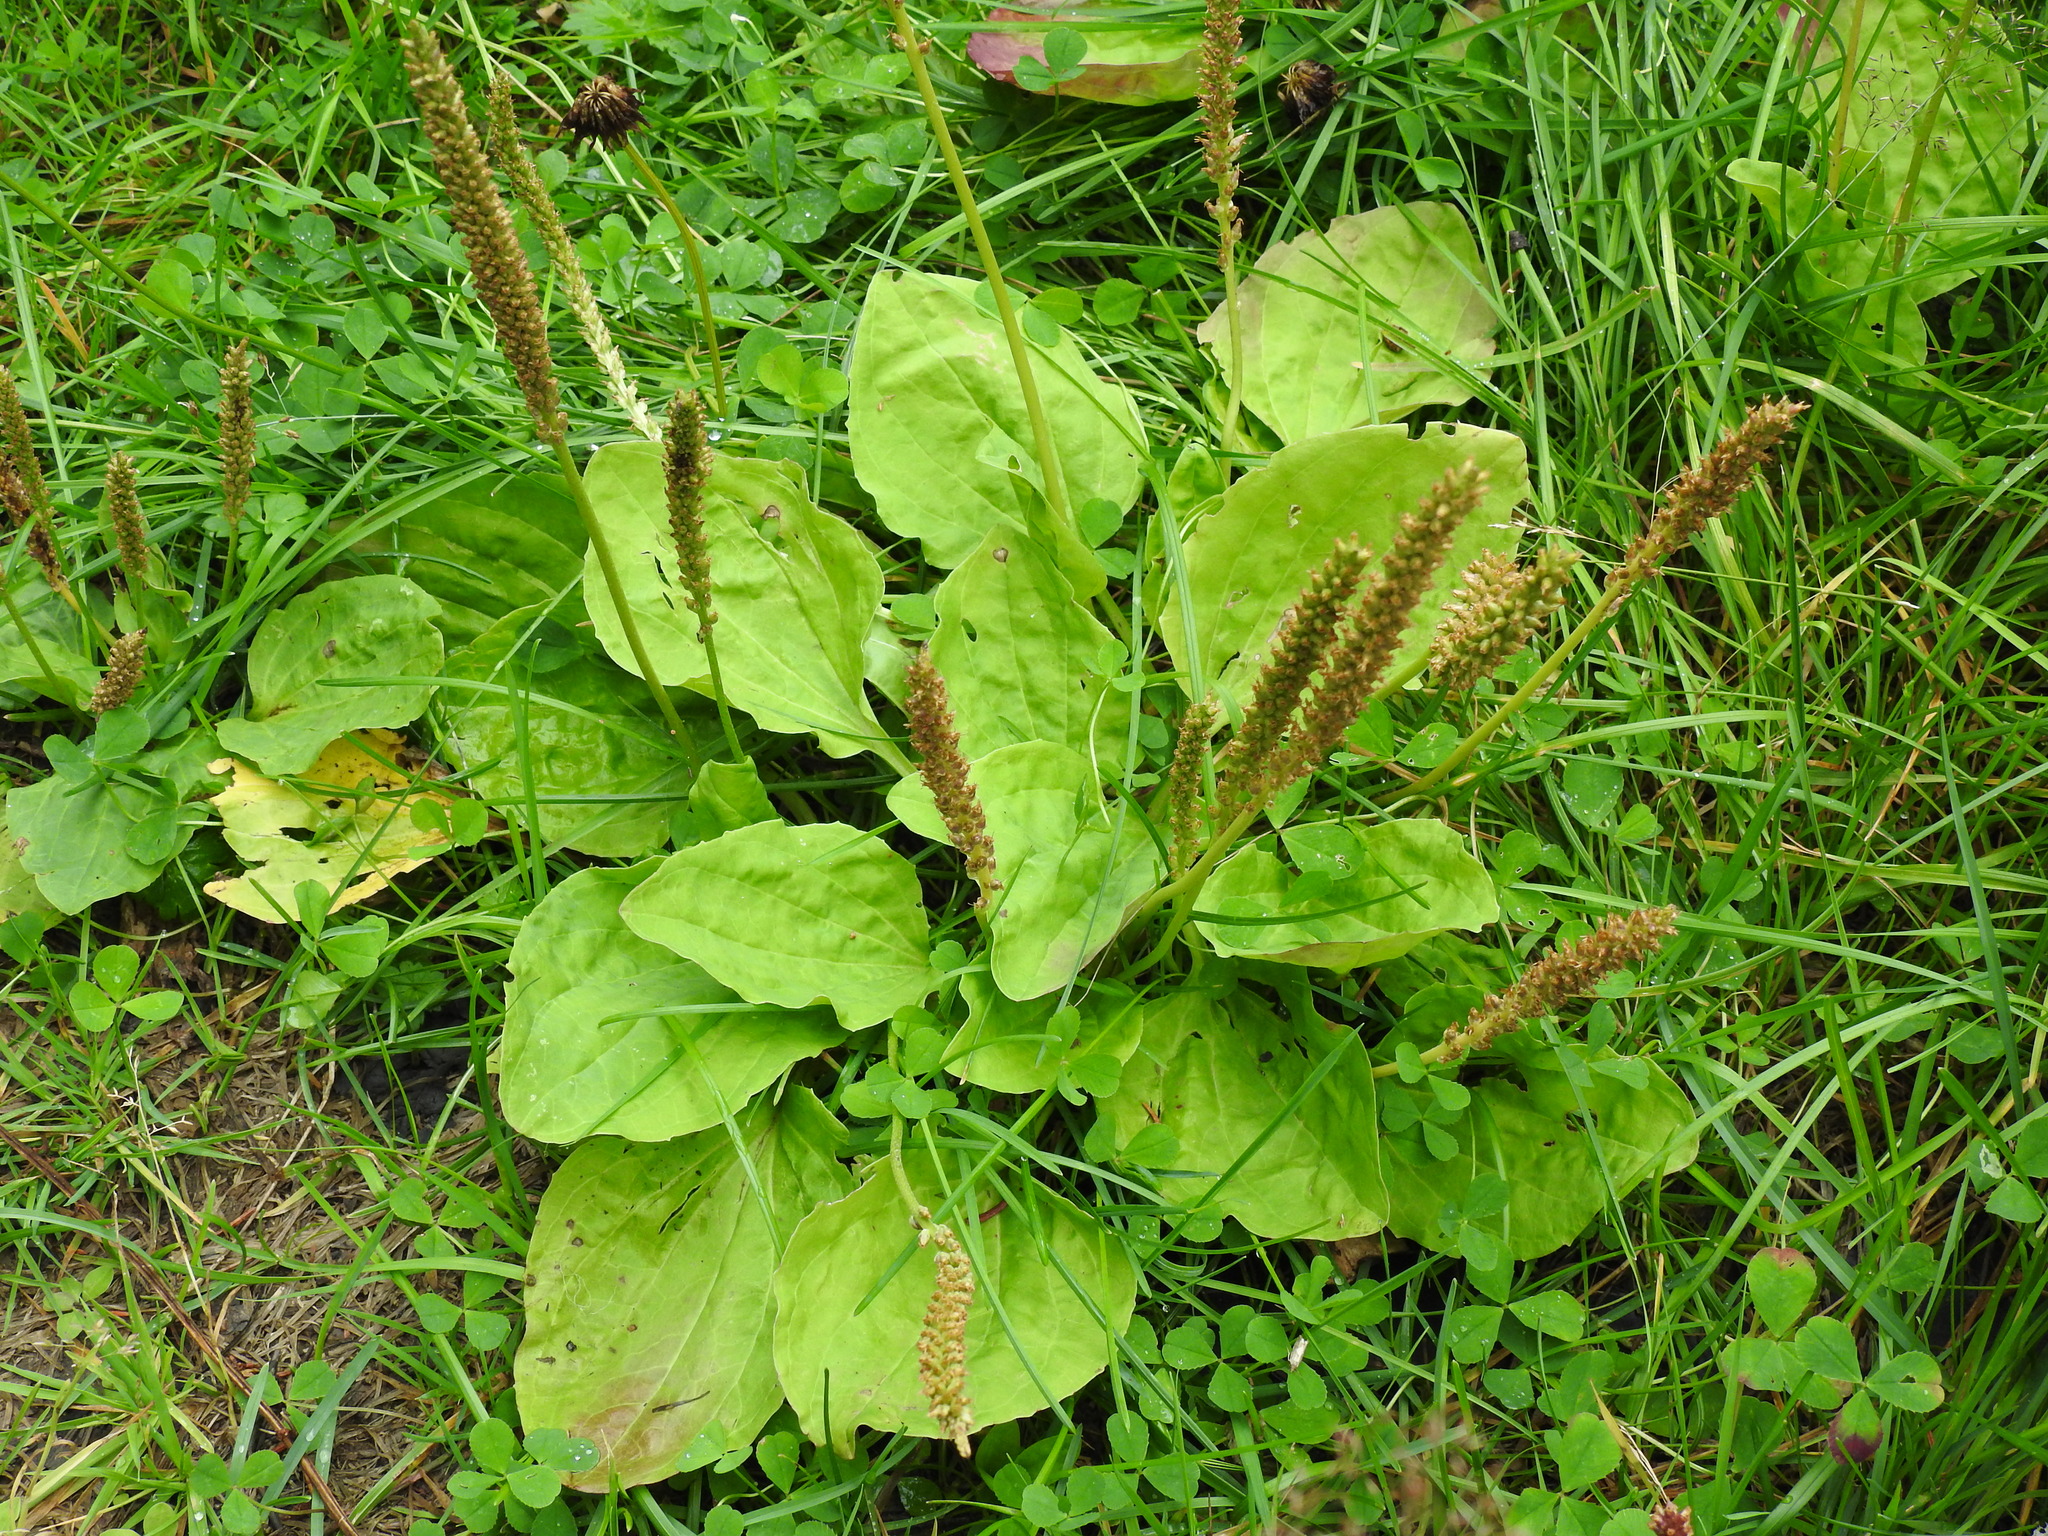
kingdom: Plantae
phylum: Tracheophyta
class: Magnoliopsida
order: Lamiales
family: Plantaginaceae
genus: Plantago
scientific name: Plantago major
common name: Common plantain
